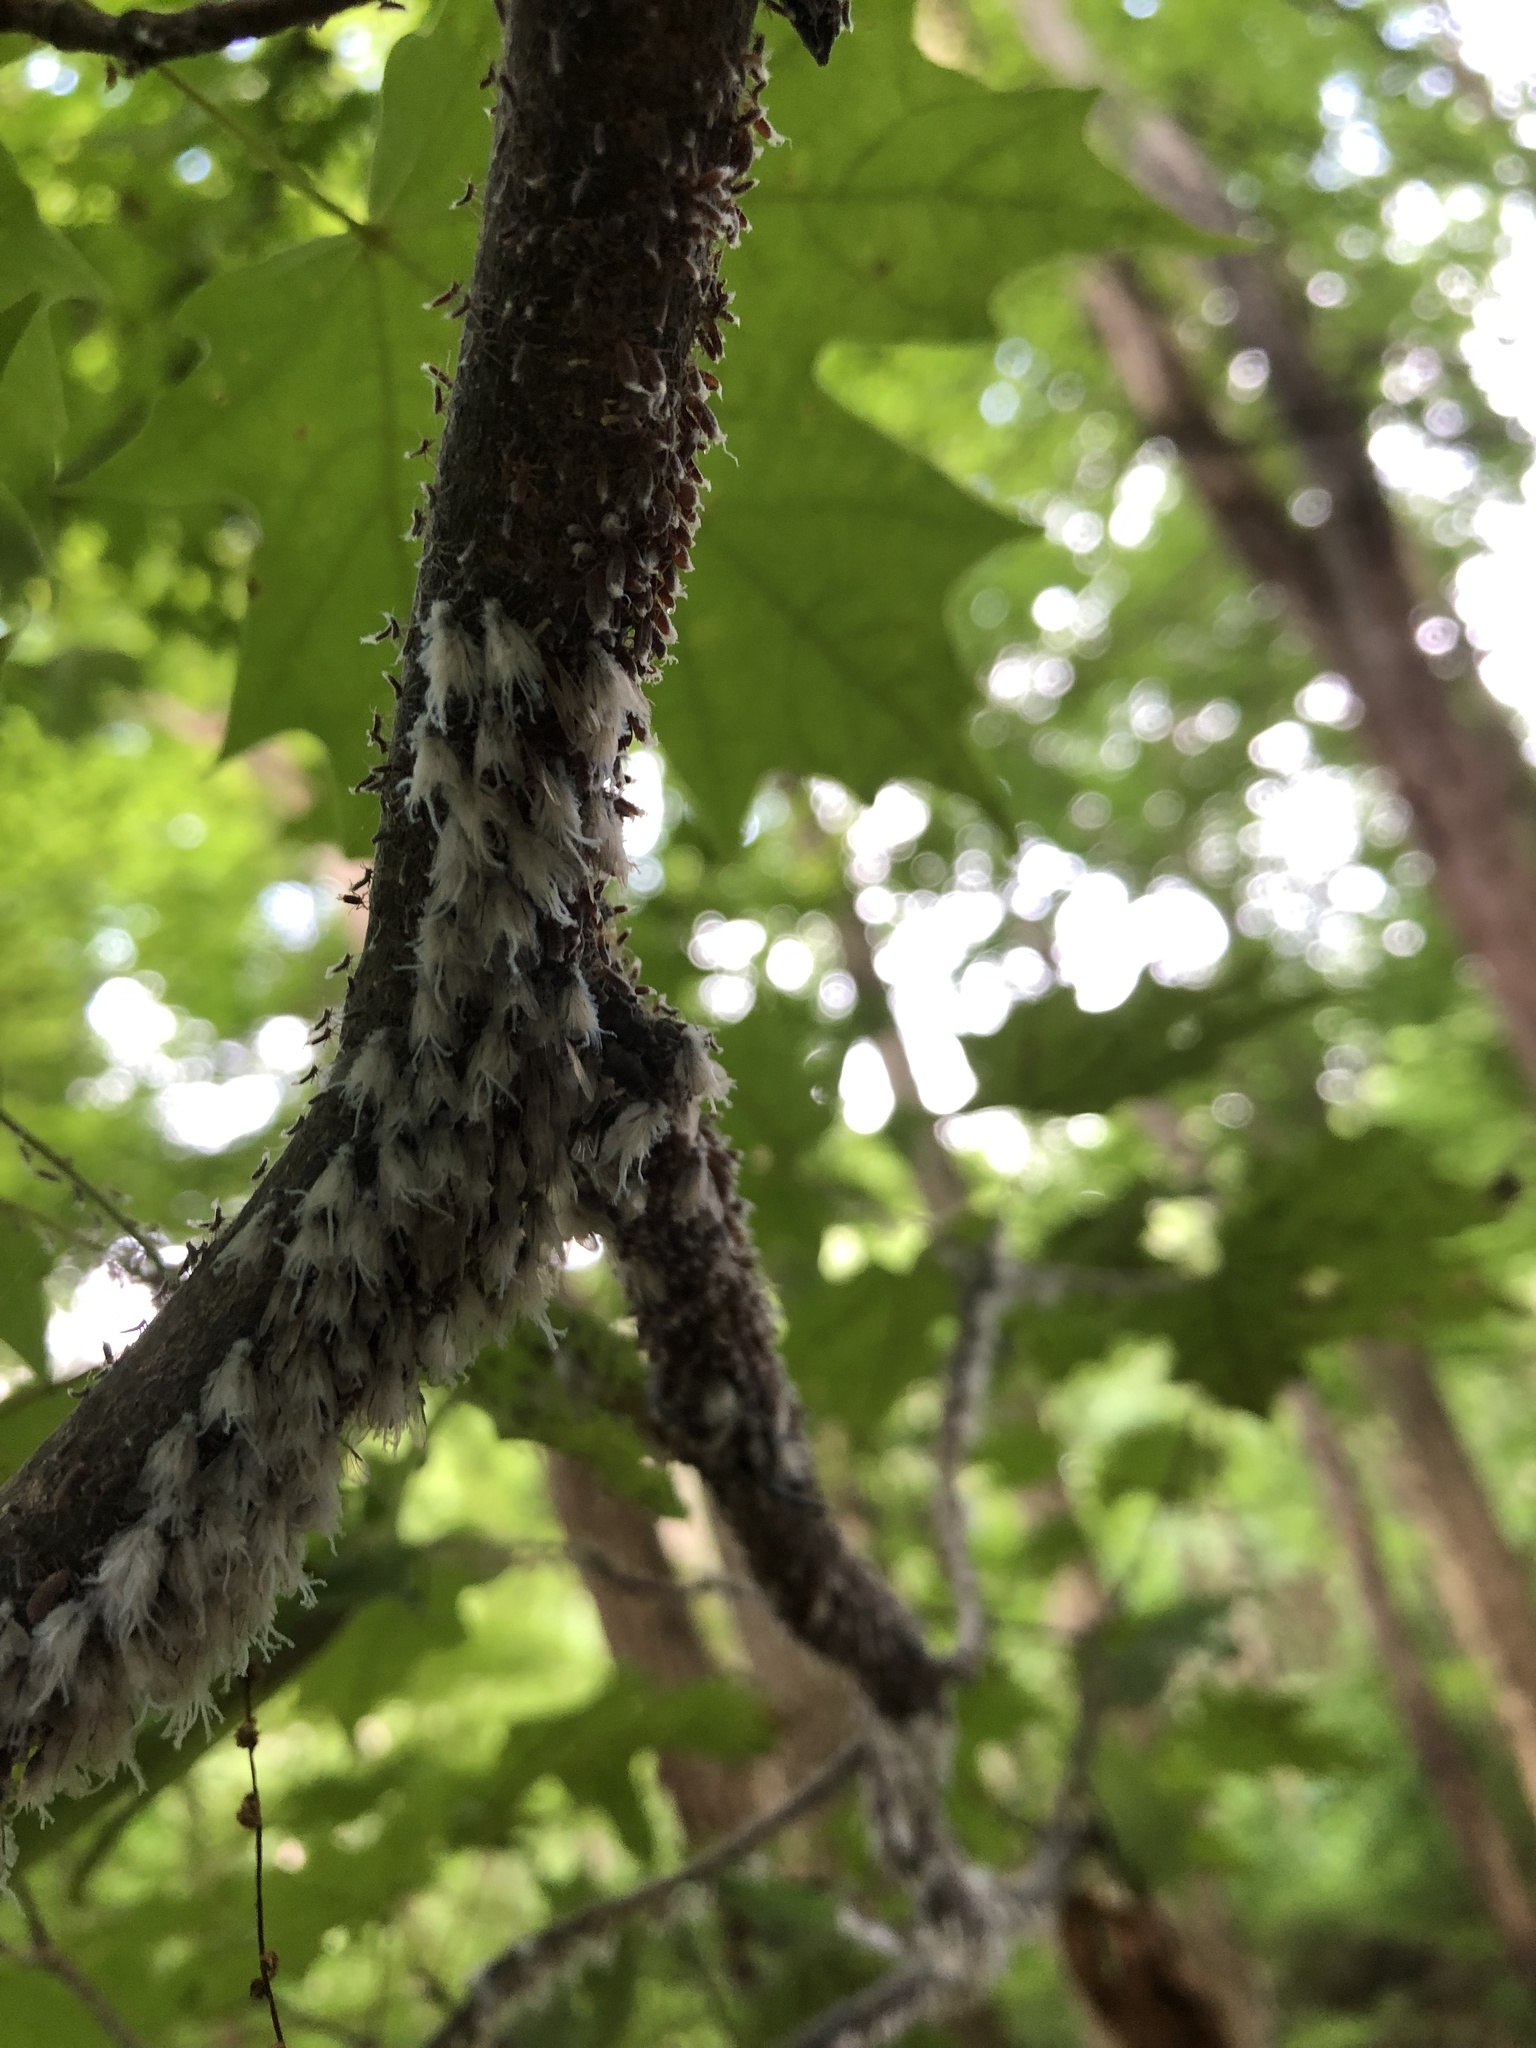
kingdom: Animalia
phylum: Arthropoda
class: Insecta
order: Hemiptera
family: Aphididae
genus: Neoprociphilus
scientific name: Neoprociphilus aceris
